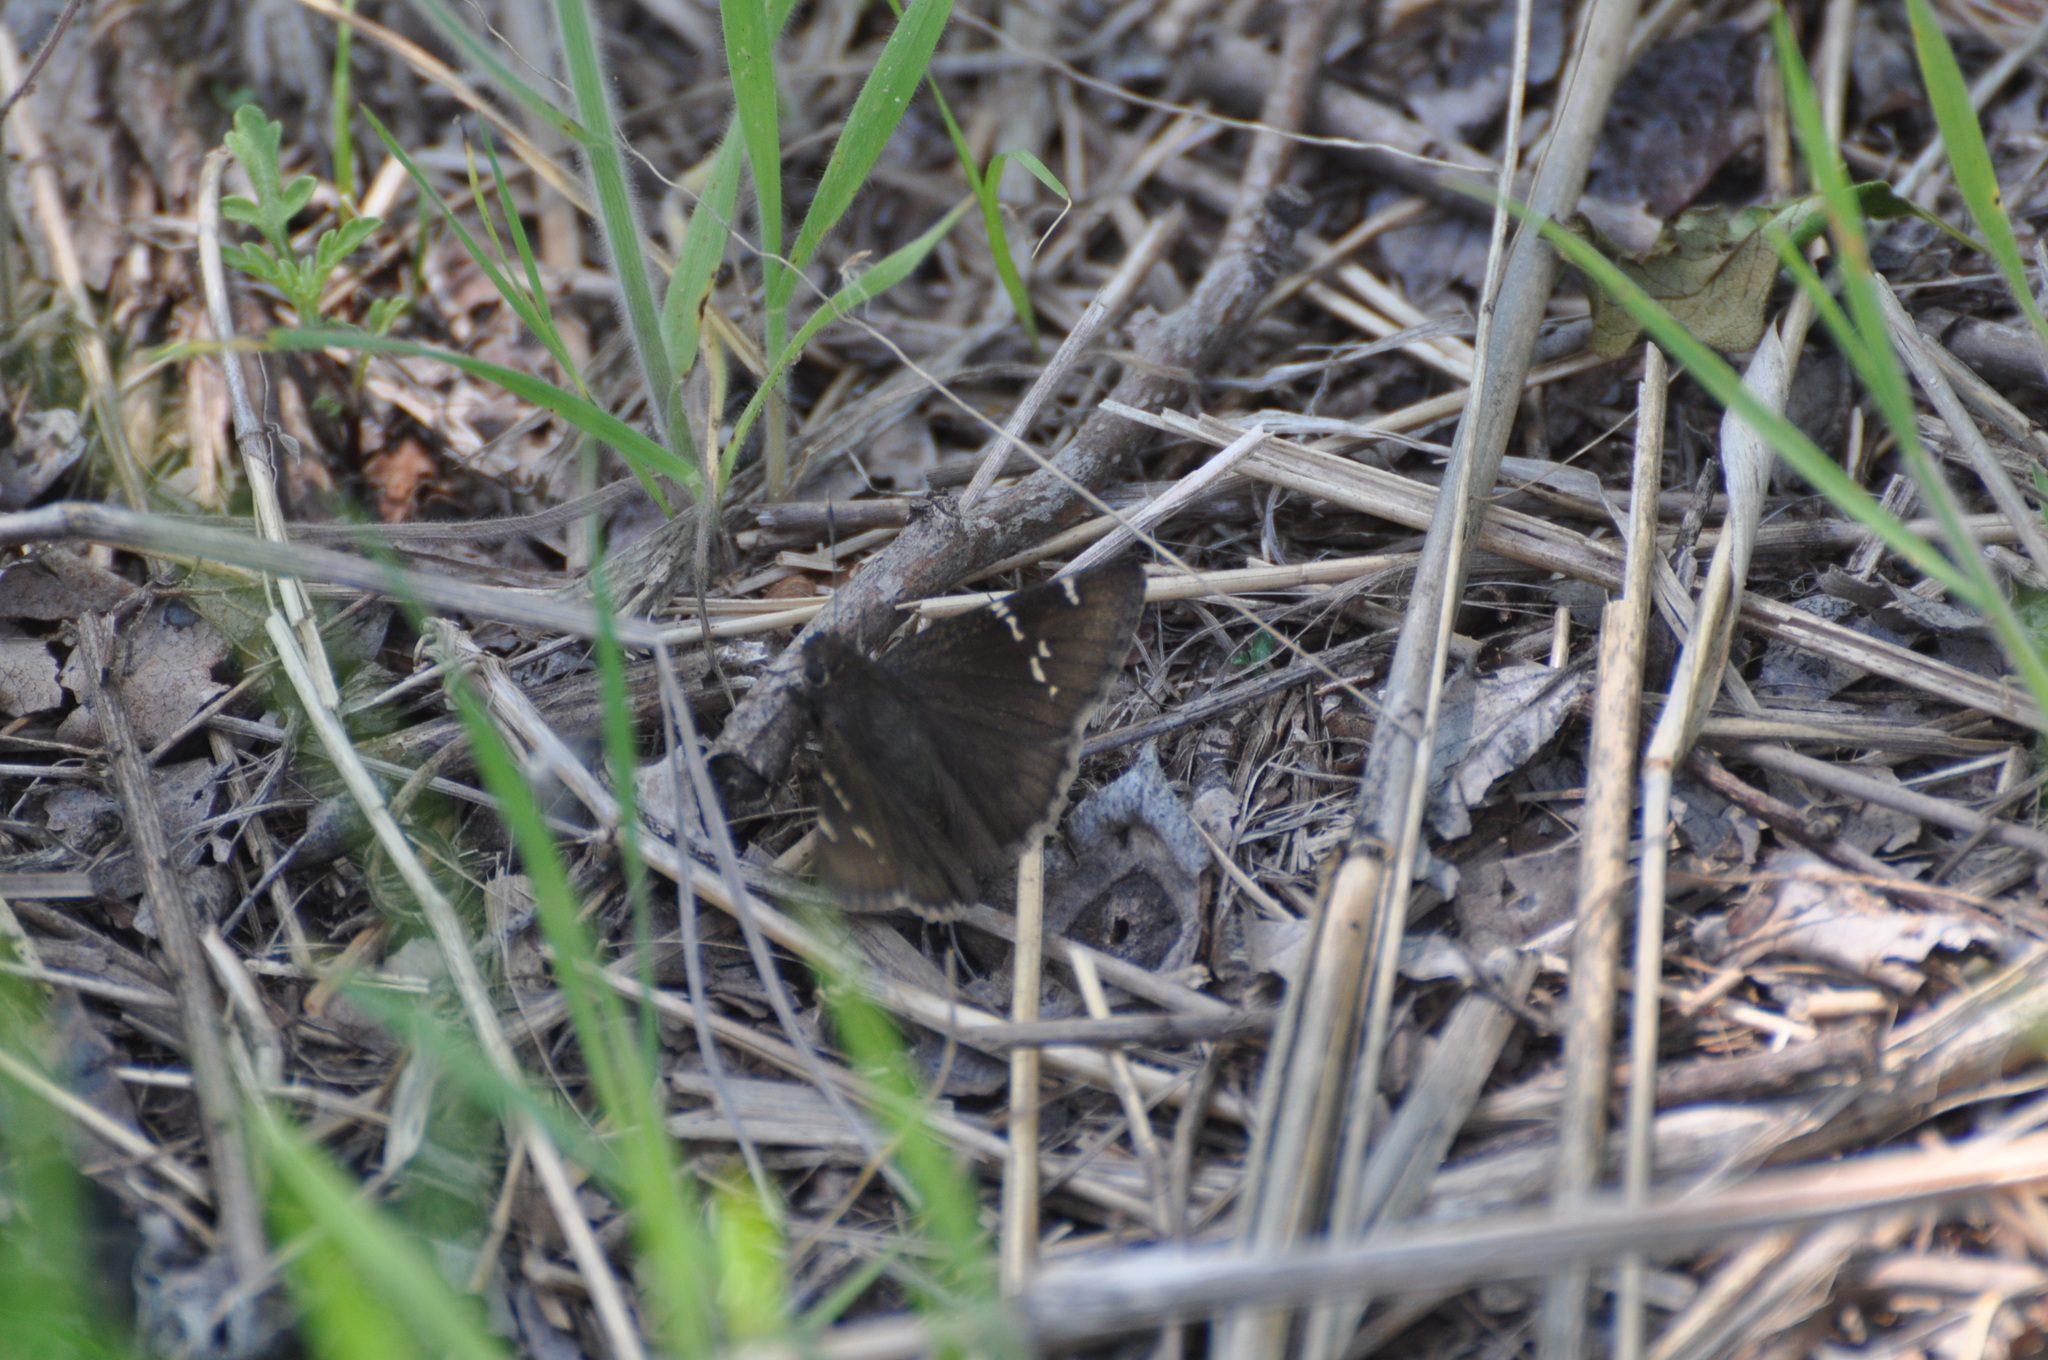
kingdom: Animalia
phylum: Arthropoda
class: Insecta
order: Lepidoptera
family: Hesperiidae
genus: Thorybes
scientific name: Thorybes daunus
